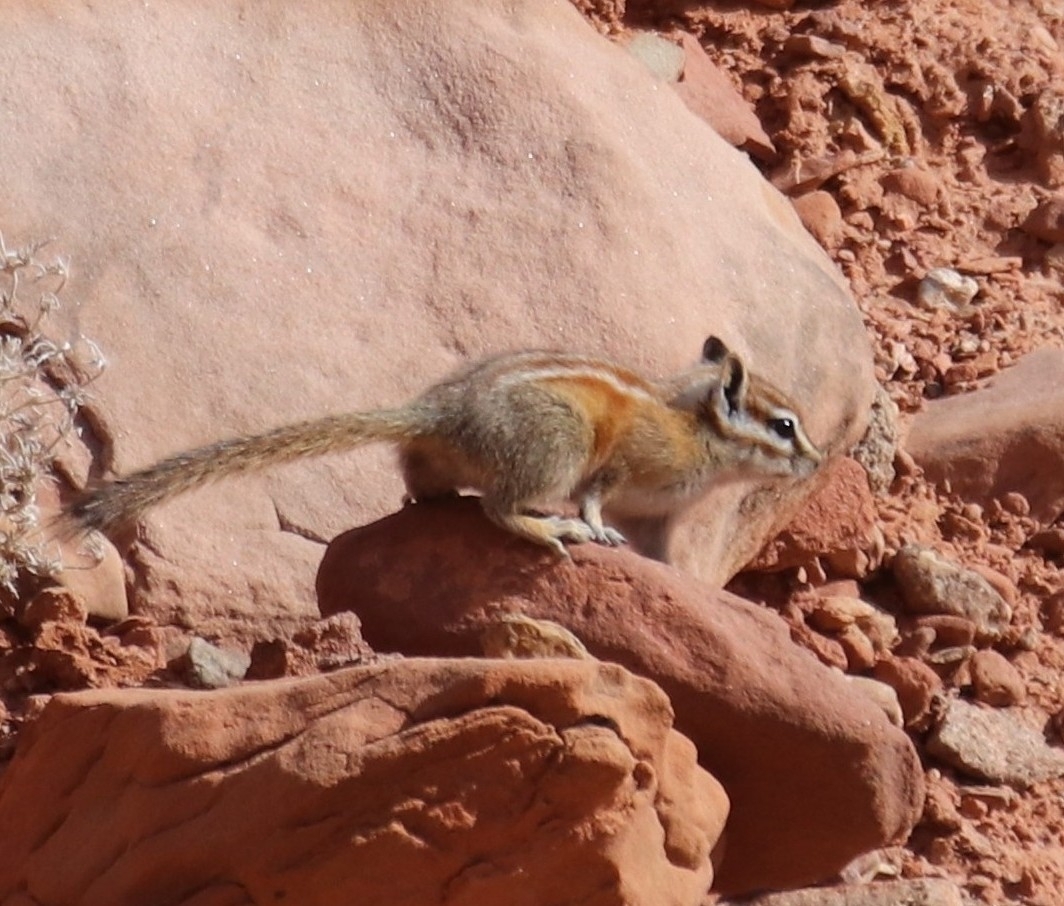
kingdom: Animalia
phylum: Chordata
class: Mammalia
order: Rodentia
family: Sciuridae
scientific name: Sciuridae
